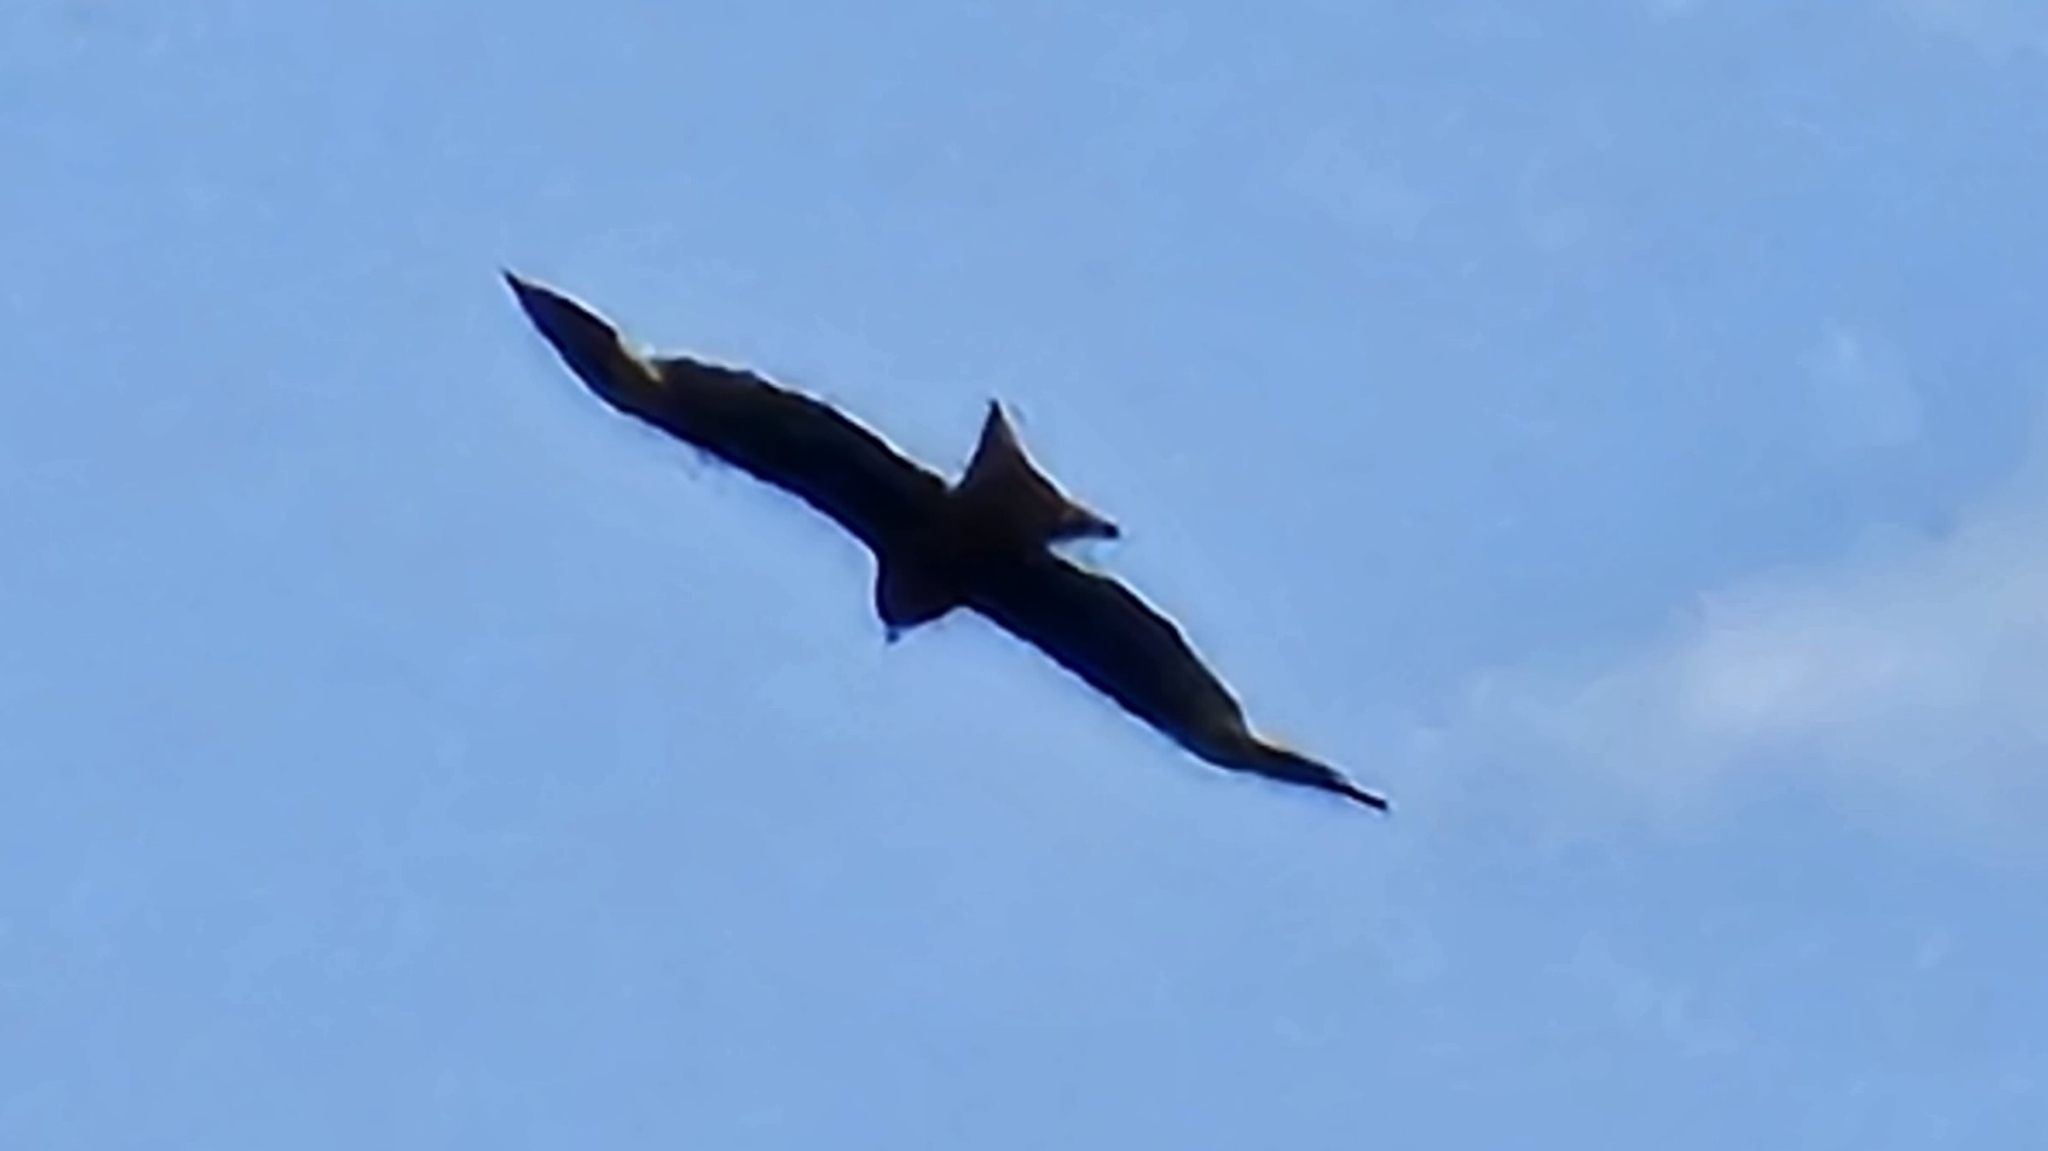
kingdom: Animalia
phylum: Chordata
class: Aves
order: Accipitriformes
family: Accipitridae
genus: Milvus
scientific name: Milvus milvus
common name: Red kite
